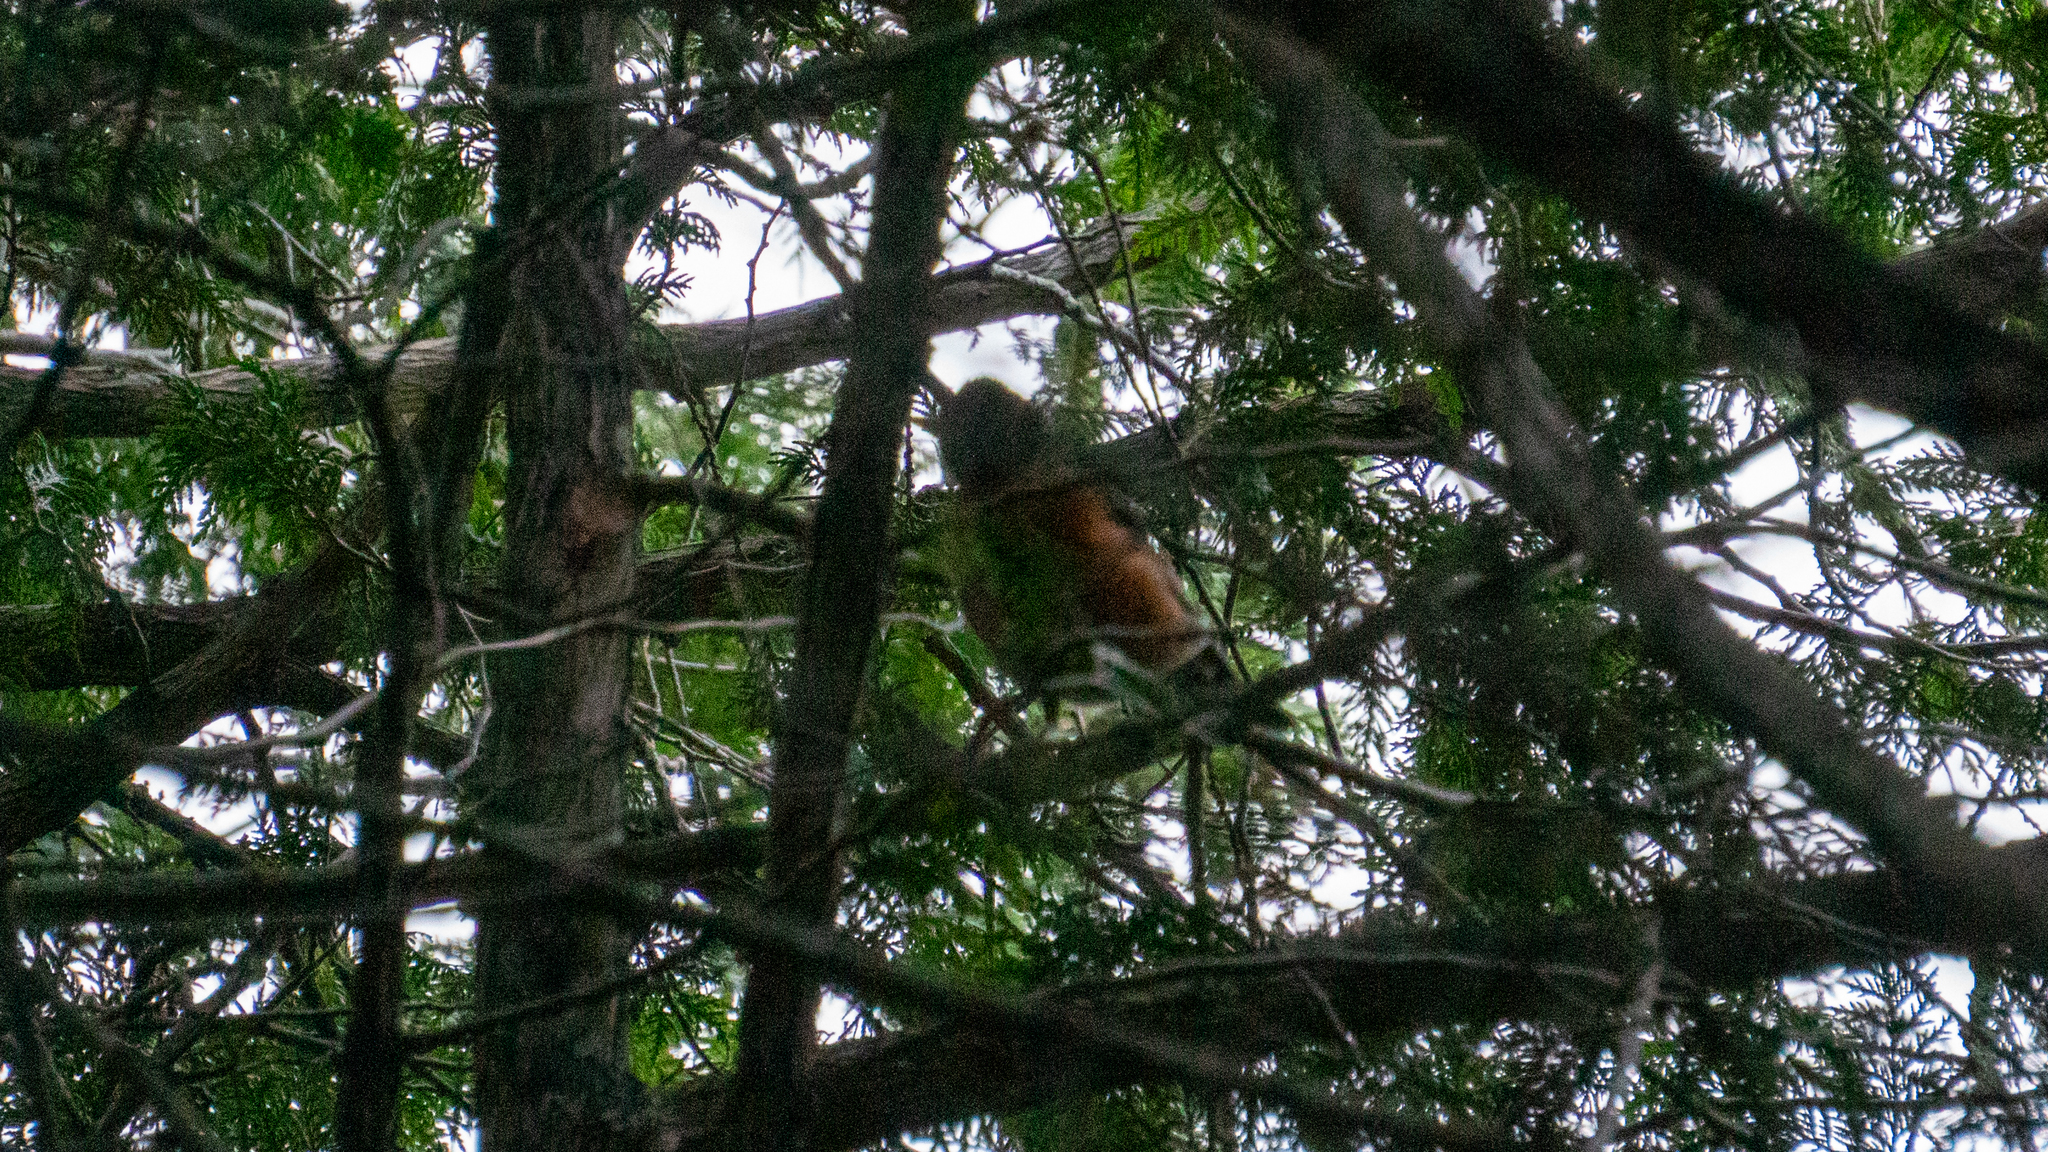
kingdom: Animalia
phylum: Chordata
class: Aves
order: Passeriformes
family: Turdidae
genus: Turdus
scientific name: Turdus migratorius
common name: American robin
